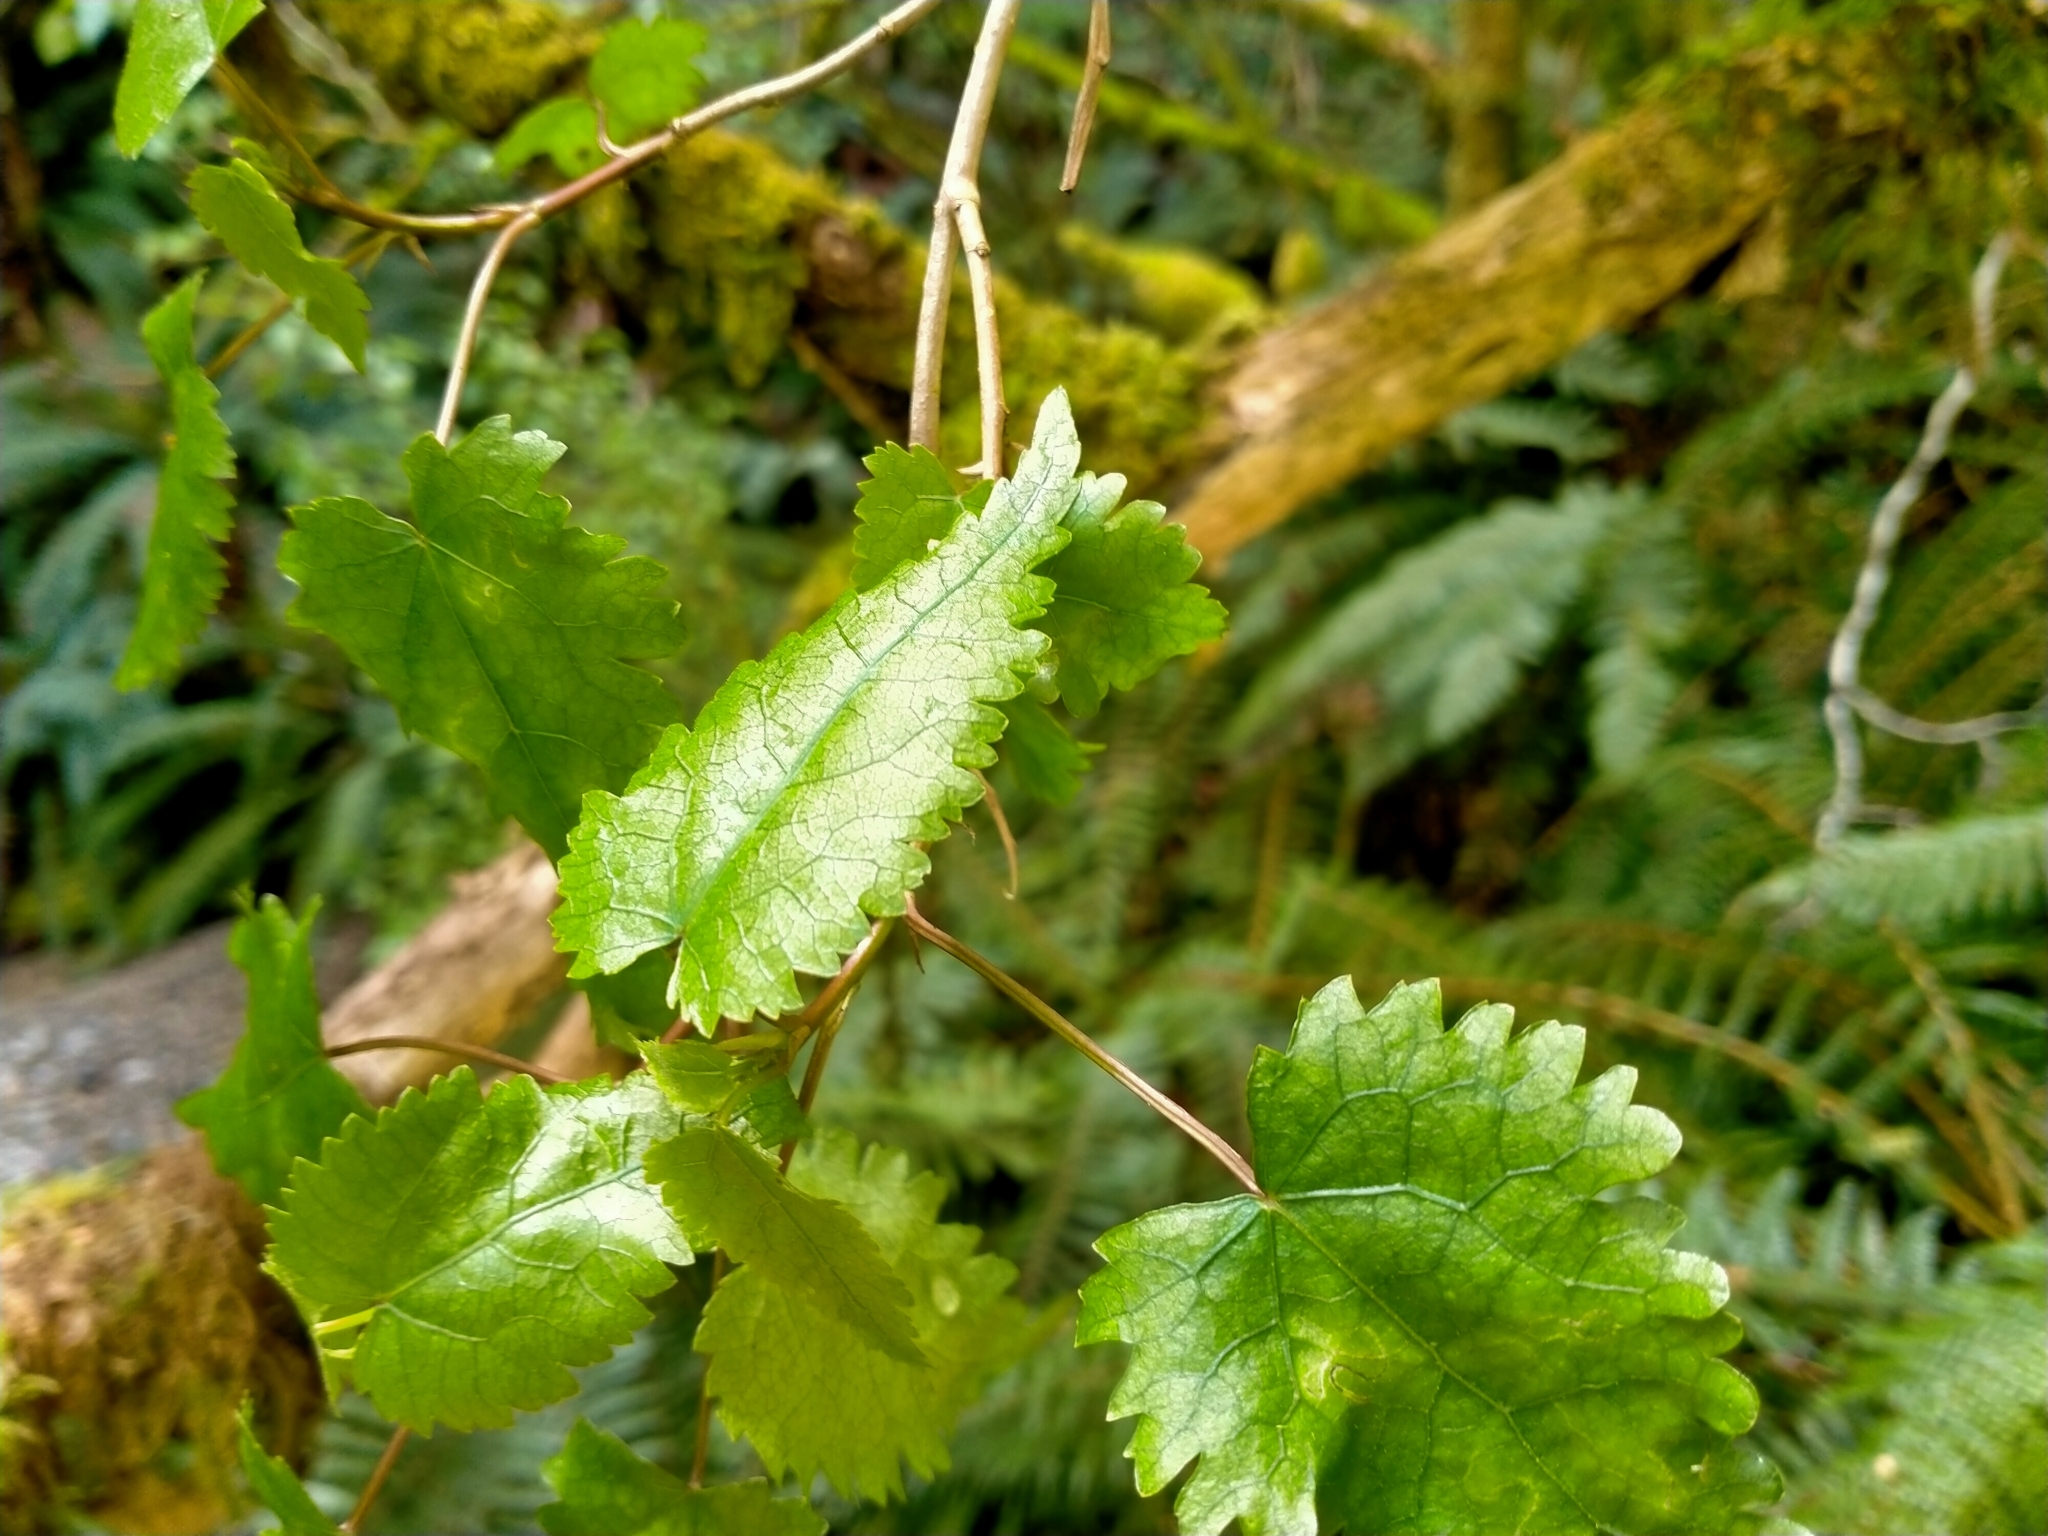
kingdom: Plantae
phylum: Tracheophyta
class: Magnoliopsida
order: Malvales
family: Malvaceae
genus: Hoheria
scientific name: Hoheria glabrata
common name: Mountain-ribbon
